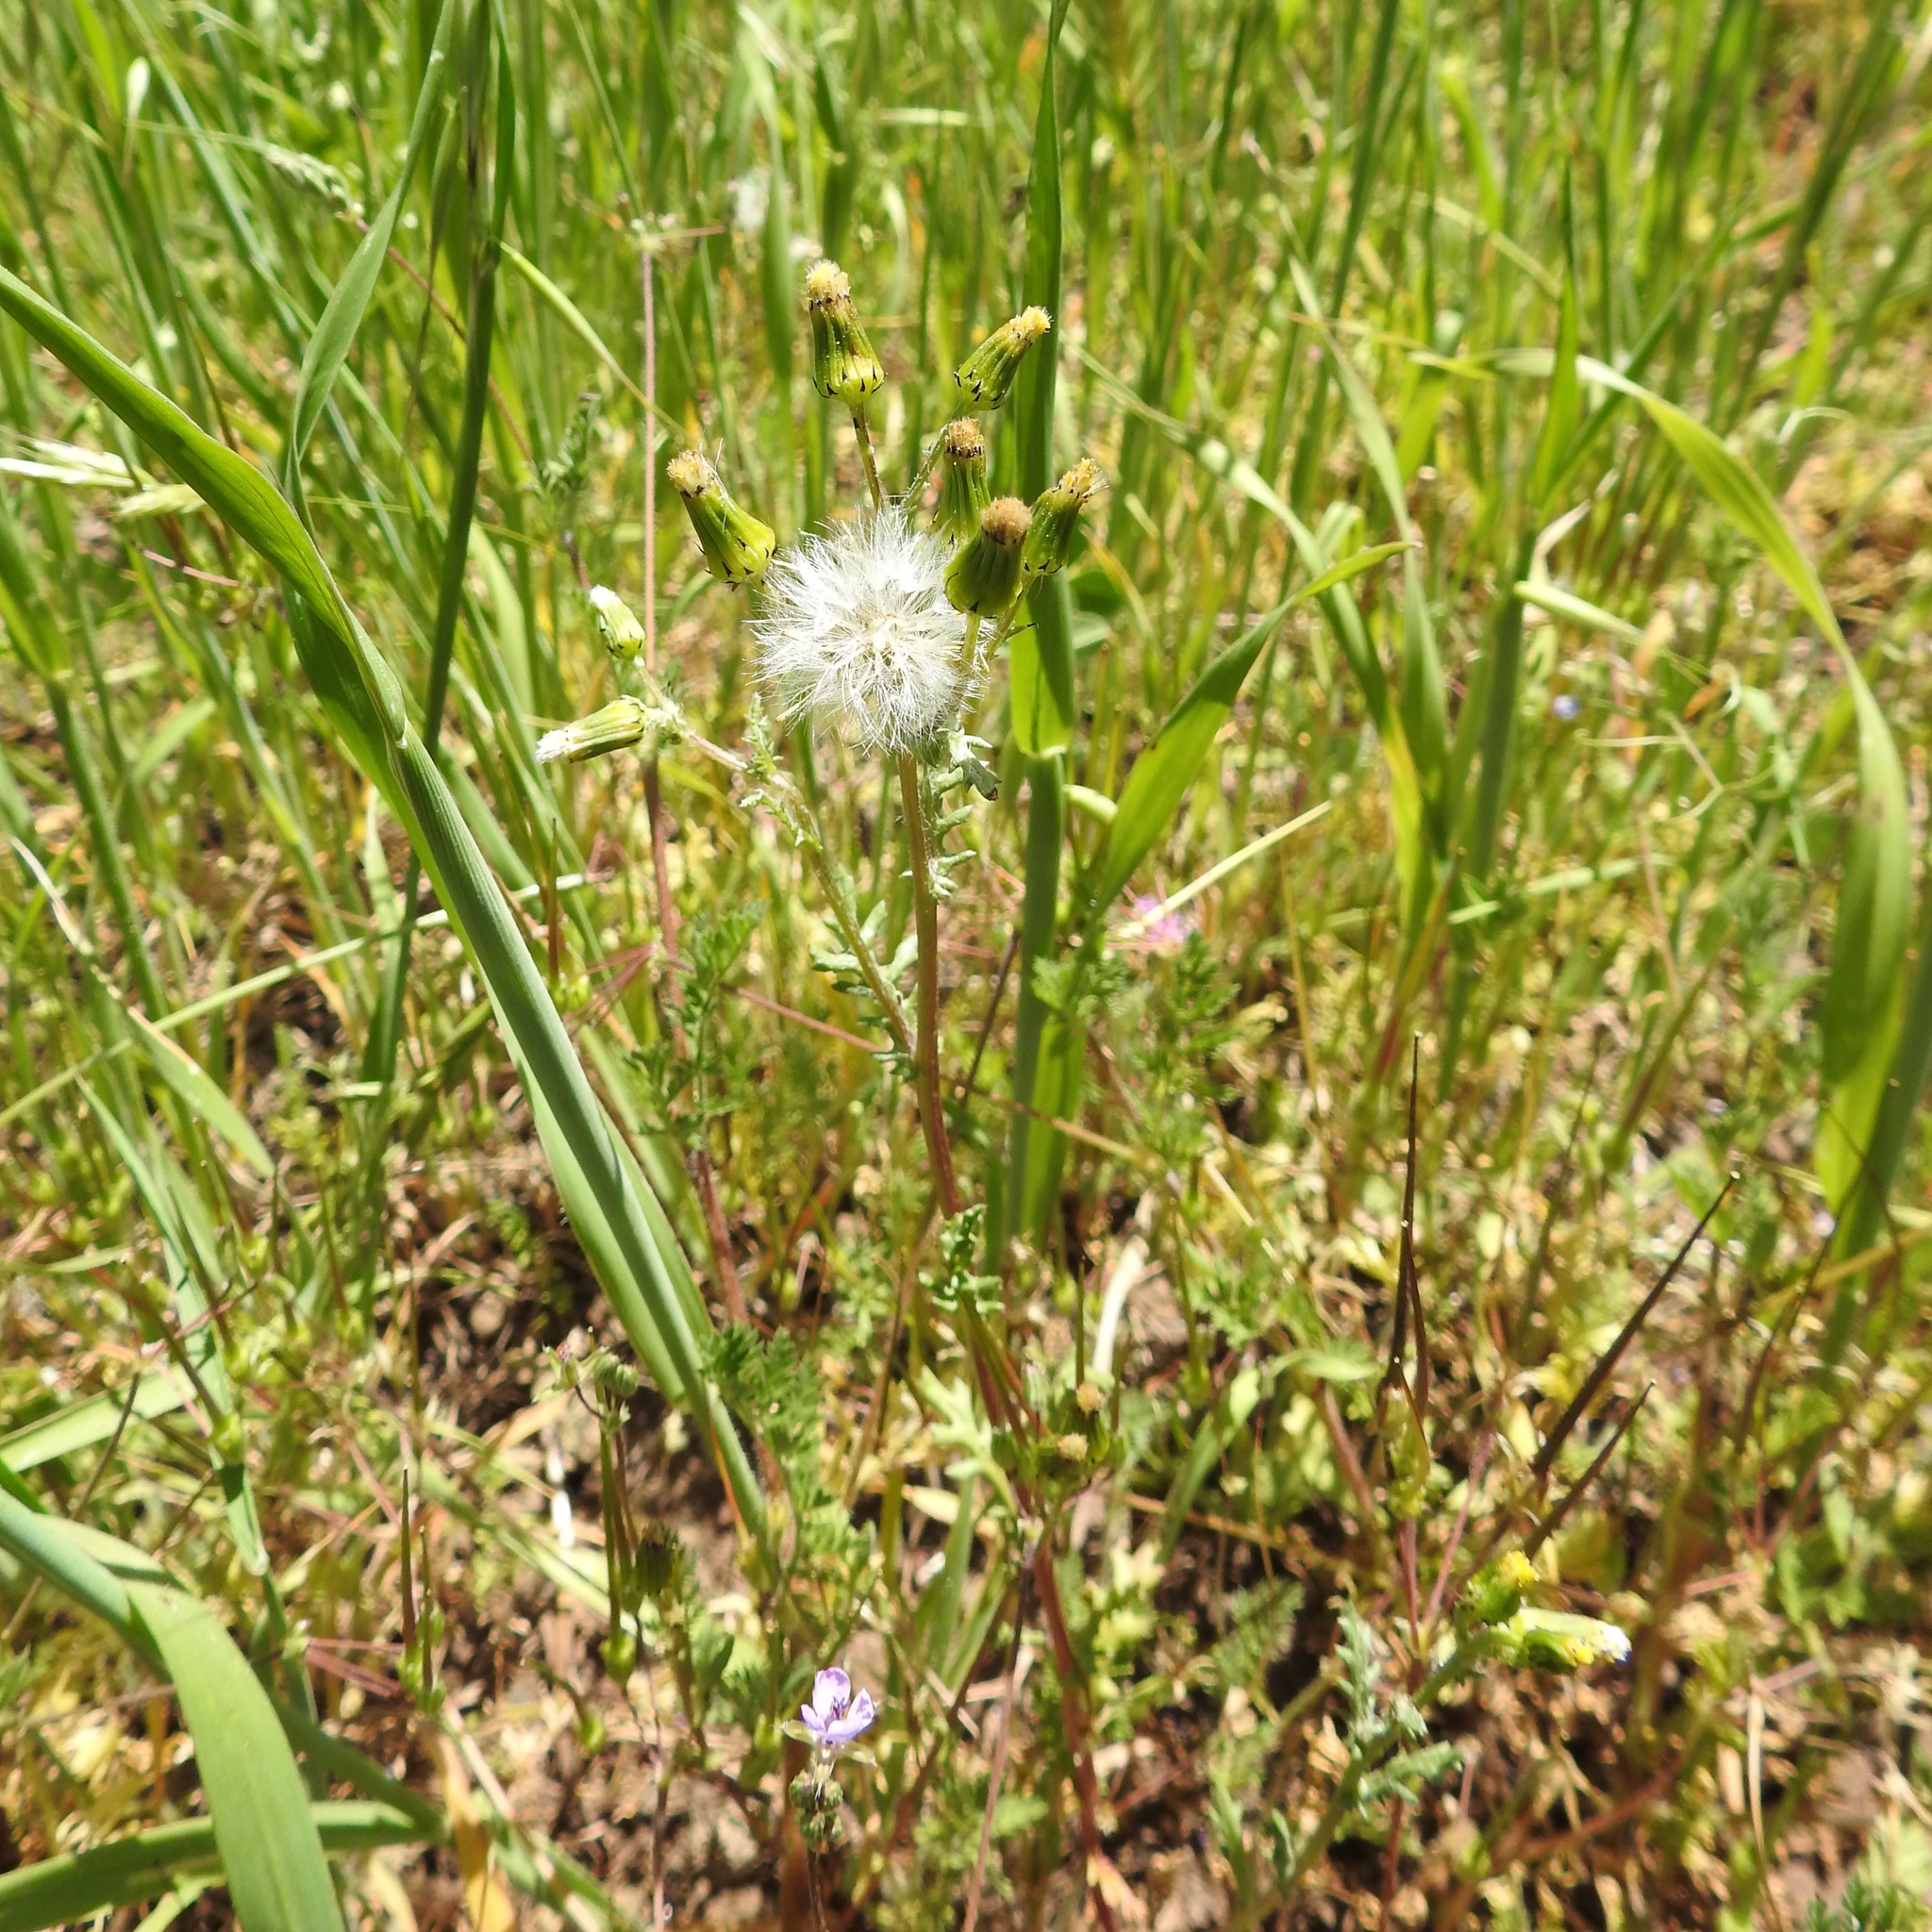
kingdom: Plantae
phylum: Tracheophyta
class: Magnoliopsida
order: Asterales
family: Asteraceae
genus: Senecio
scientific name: Senecio vulgaris
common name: Old-man-in-the-spring
